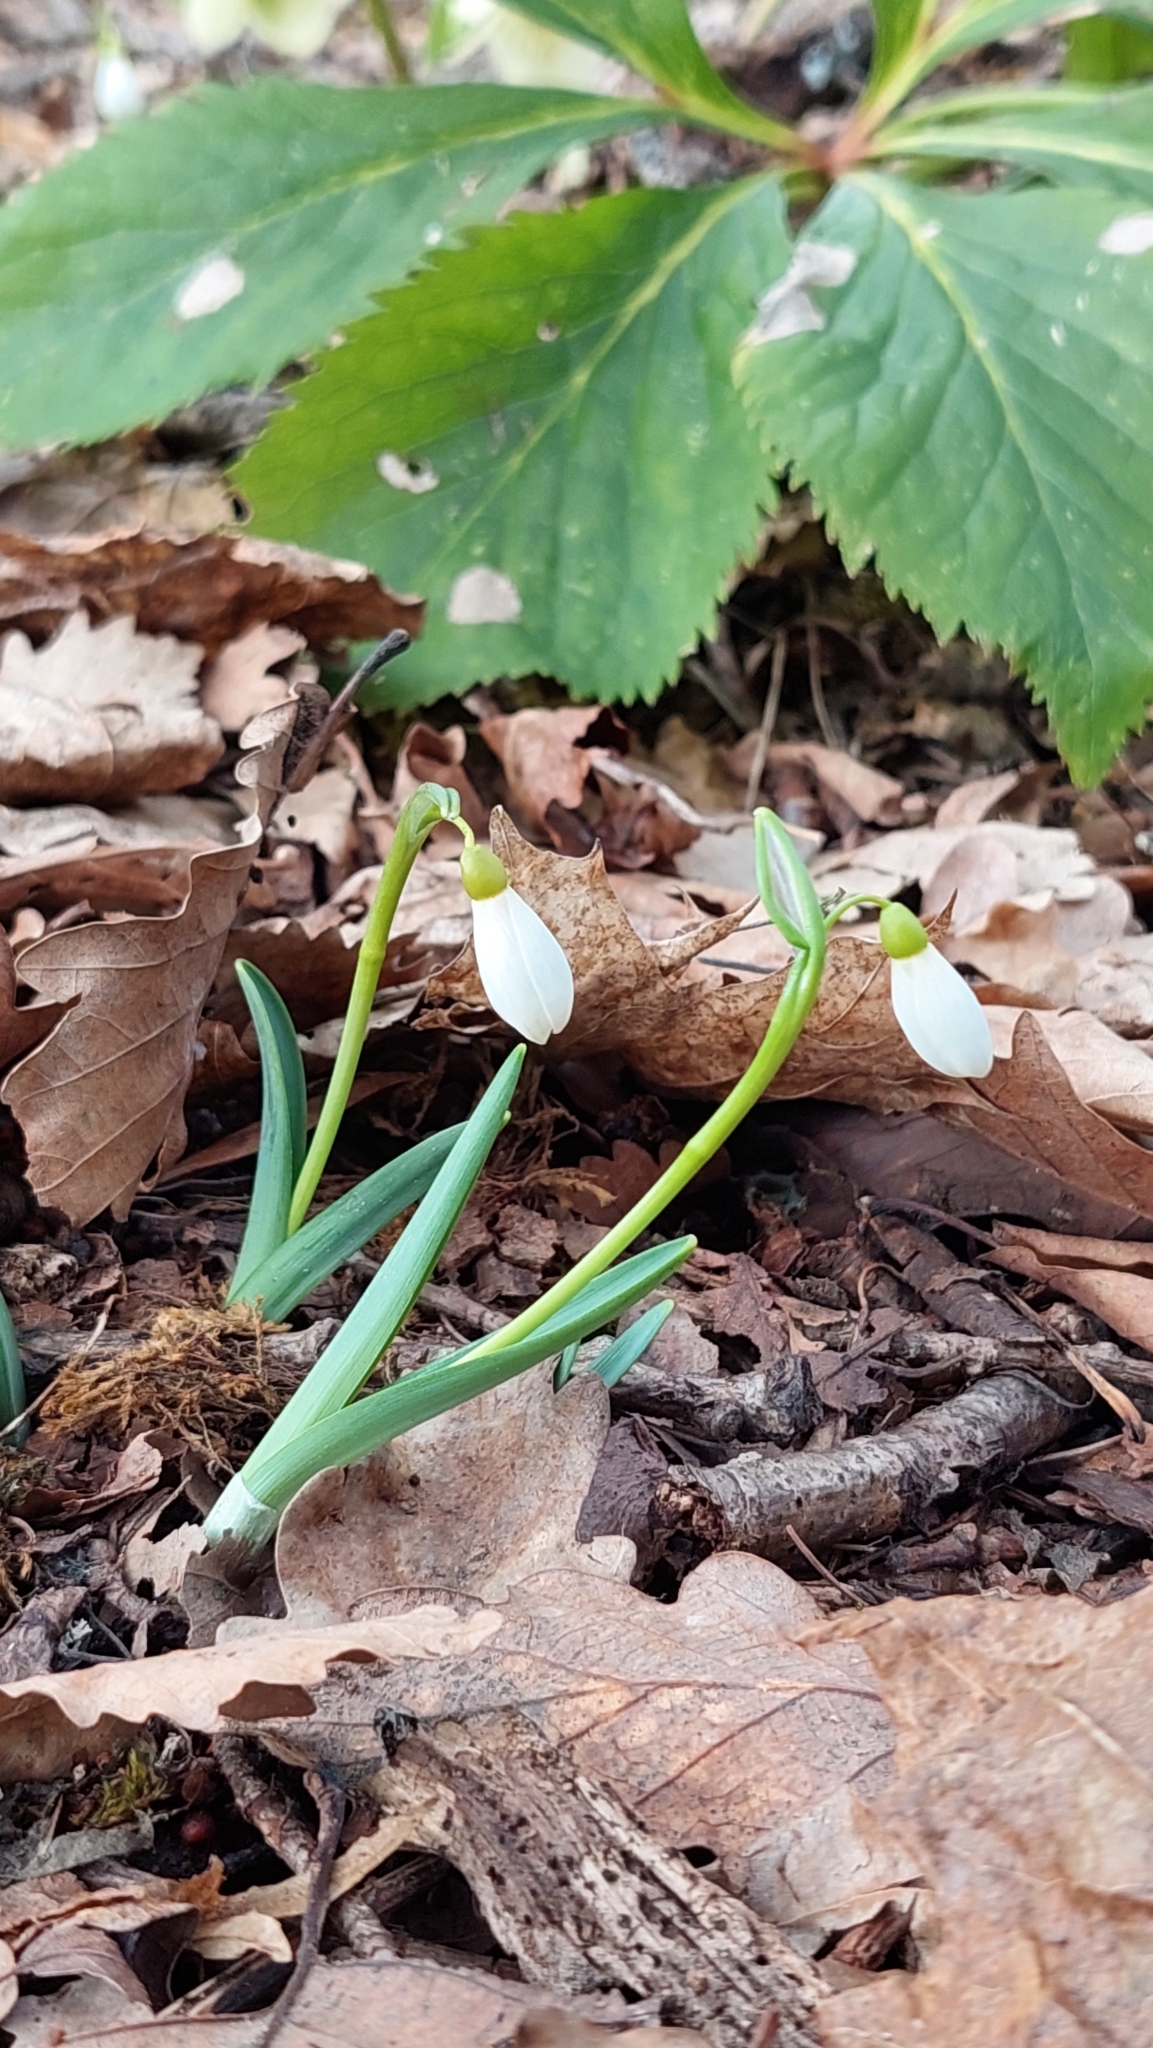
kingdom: Plantae
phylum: Tracheophyta
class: Liliopsida
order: Asparagales
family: Amaryllidaceae
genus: Galanthus
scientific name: Galanthus alpinus
